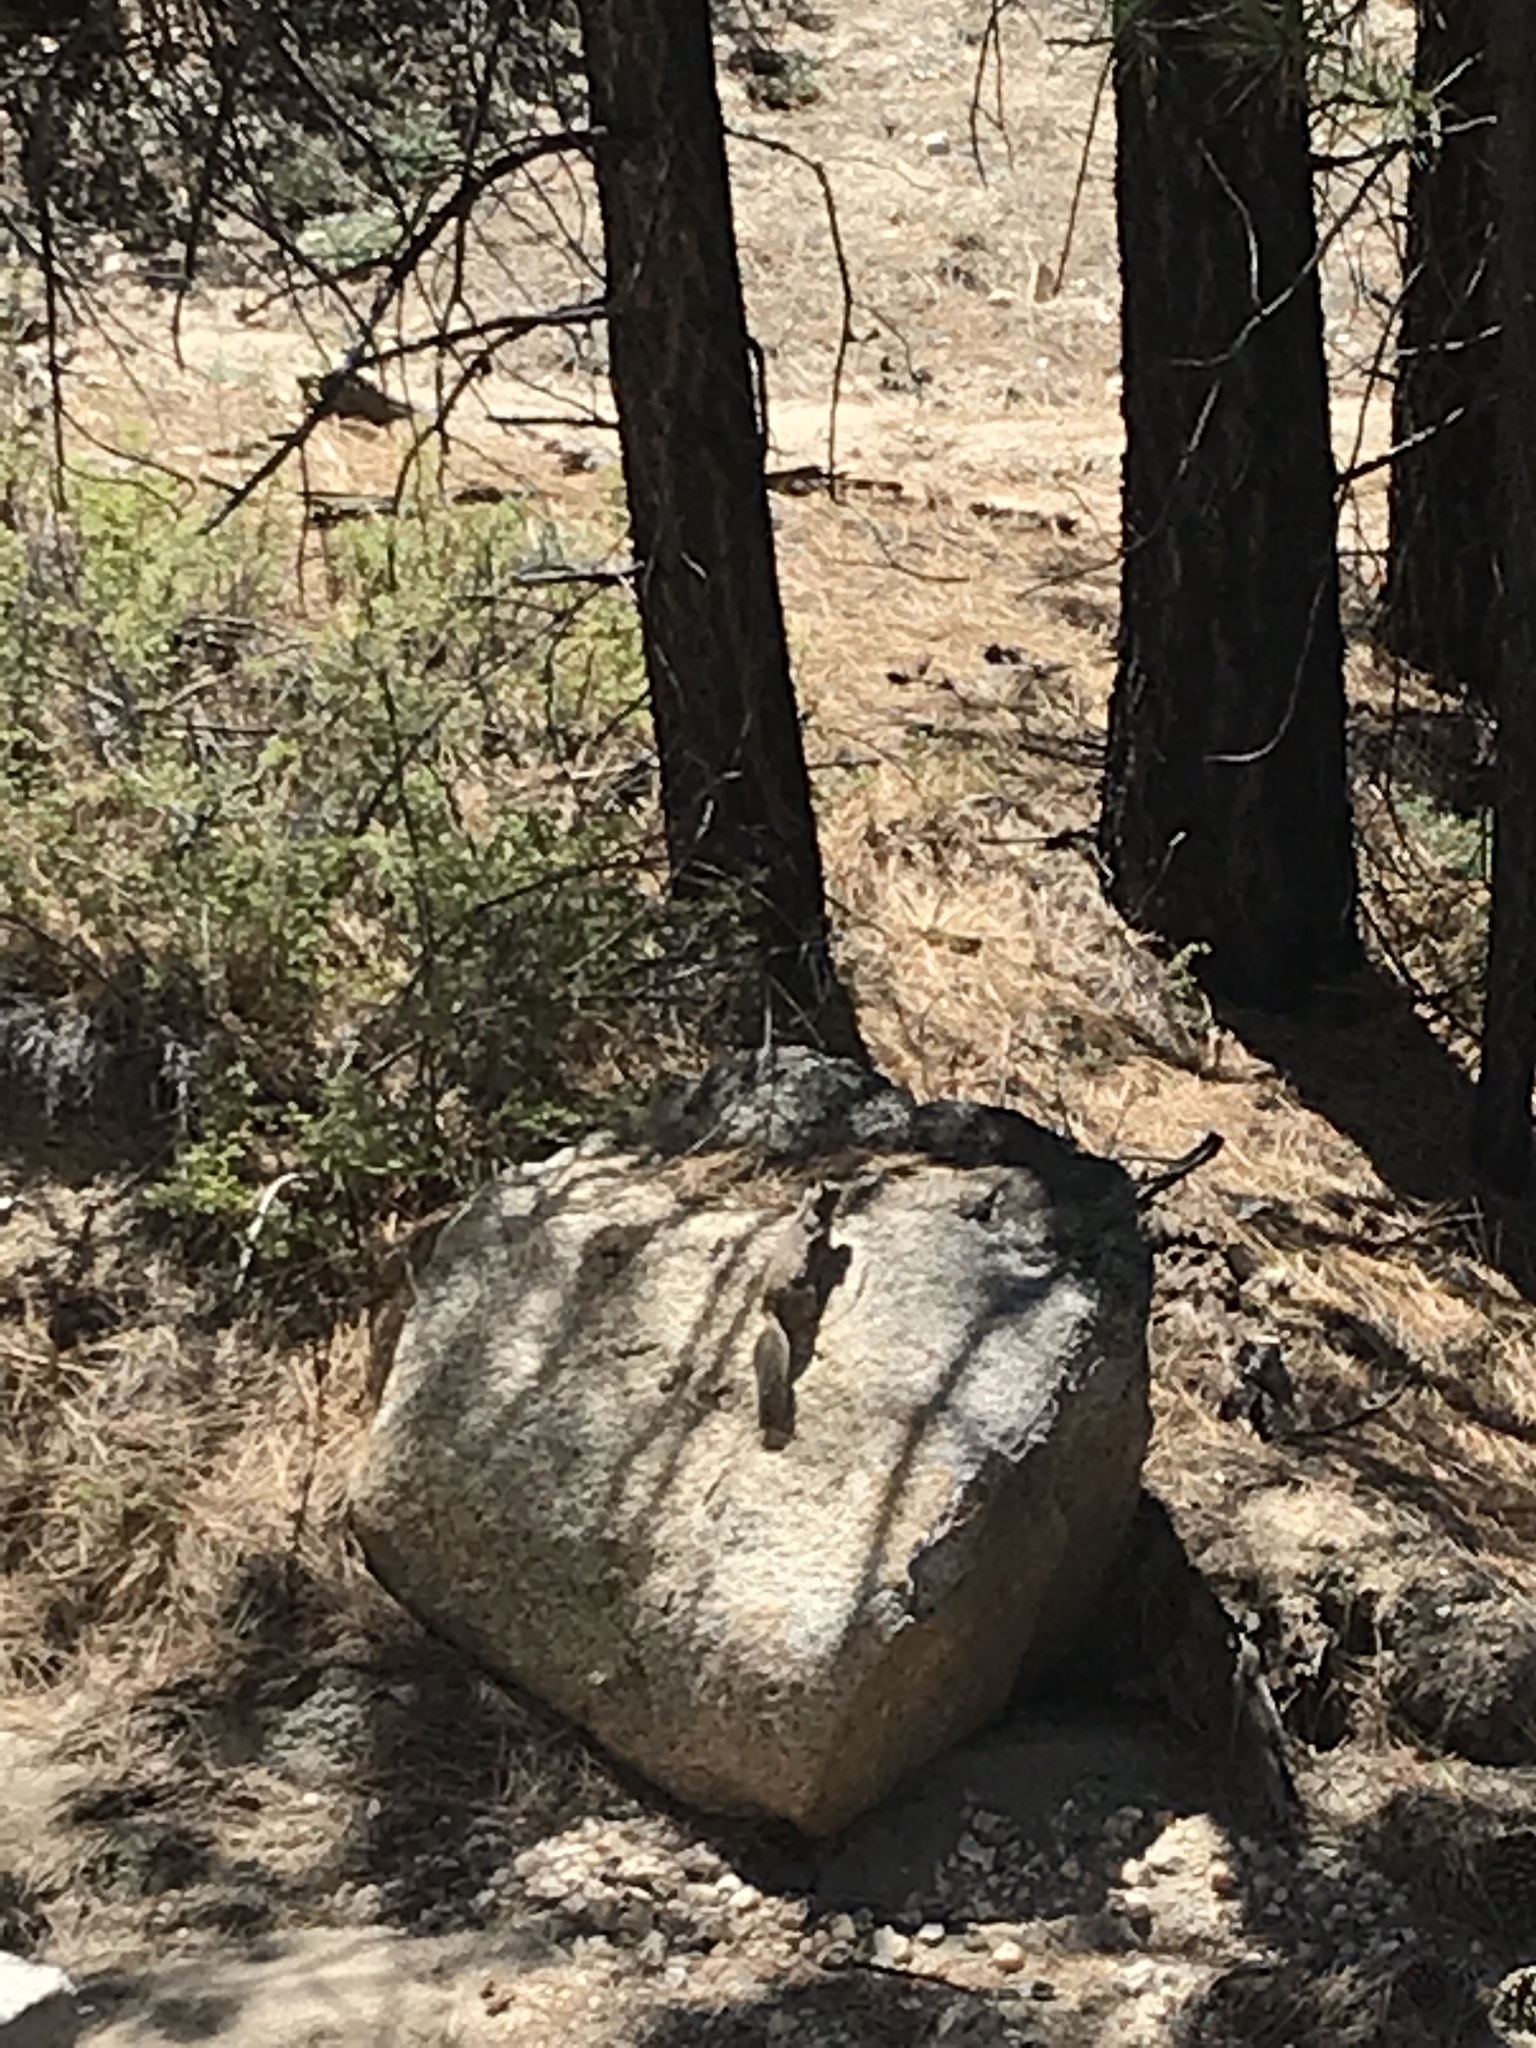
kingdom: Animalia
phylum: Chordata
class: Mammalia
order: Rodentia
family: Sciuridae
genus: Otospermophilus
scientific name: Otospermophilus beecheyi
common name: California ground squirrel
